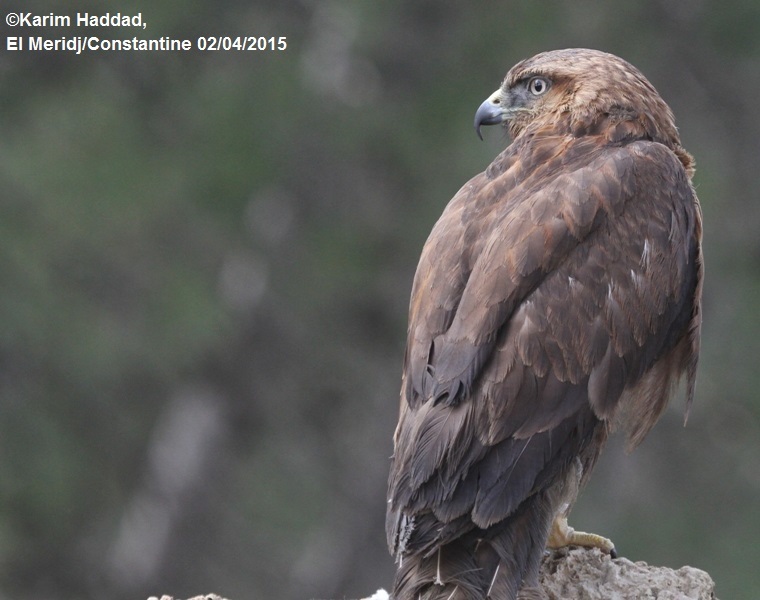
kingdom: Animalia
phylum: Chordata
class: Aves
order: Accipitriformes
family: Accipitridae
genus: Buteo
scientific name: Buteo rufinus
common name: Long-legged buzzard
